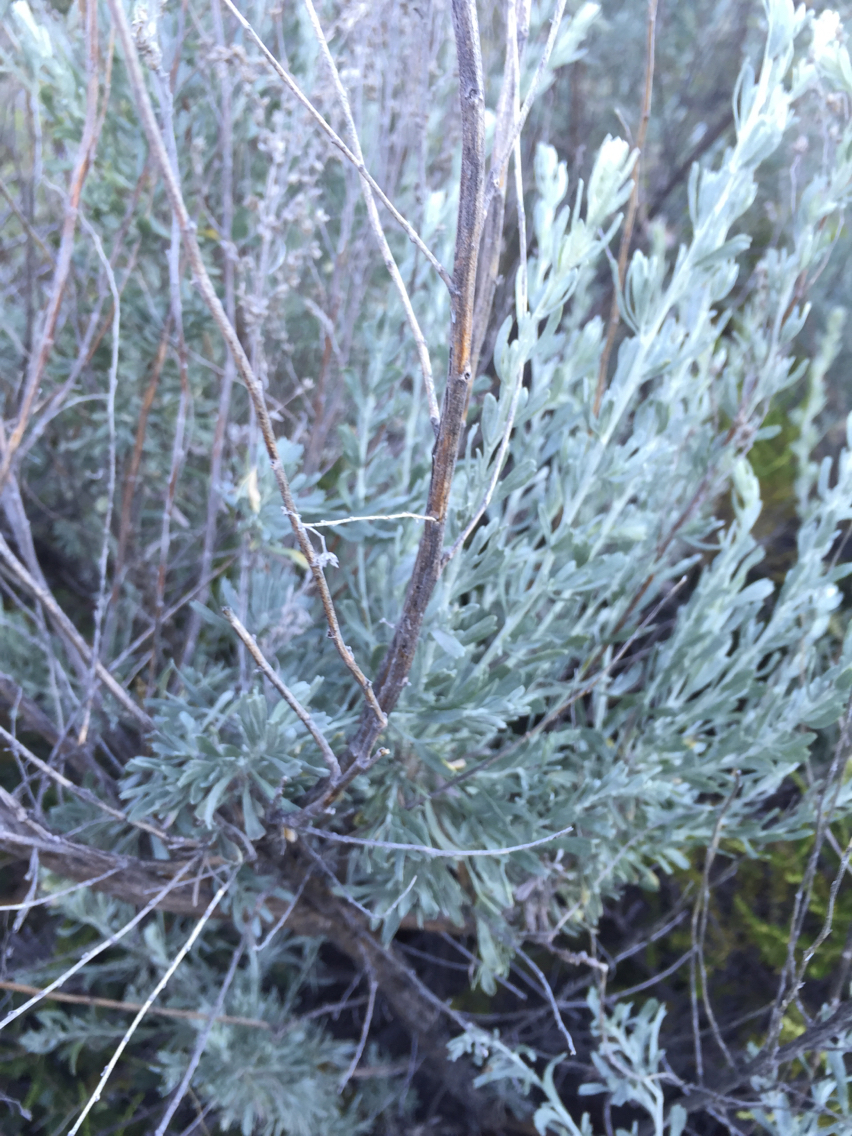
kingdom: Plantae
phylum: Tracheophyta
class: Magnoliopsida
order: Asterales
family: Asteraceae
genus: Artemisia
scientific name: Artemisia tridentata
